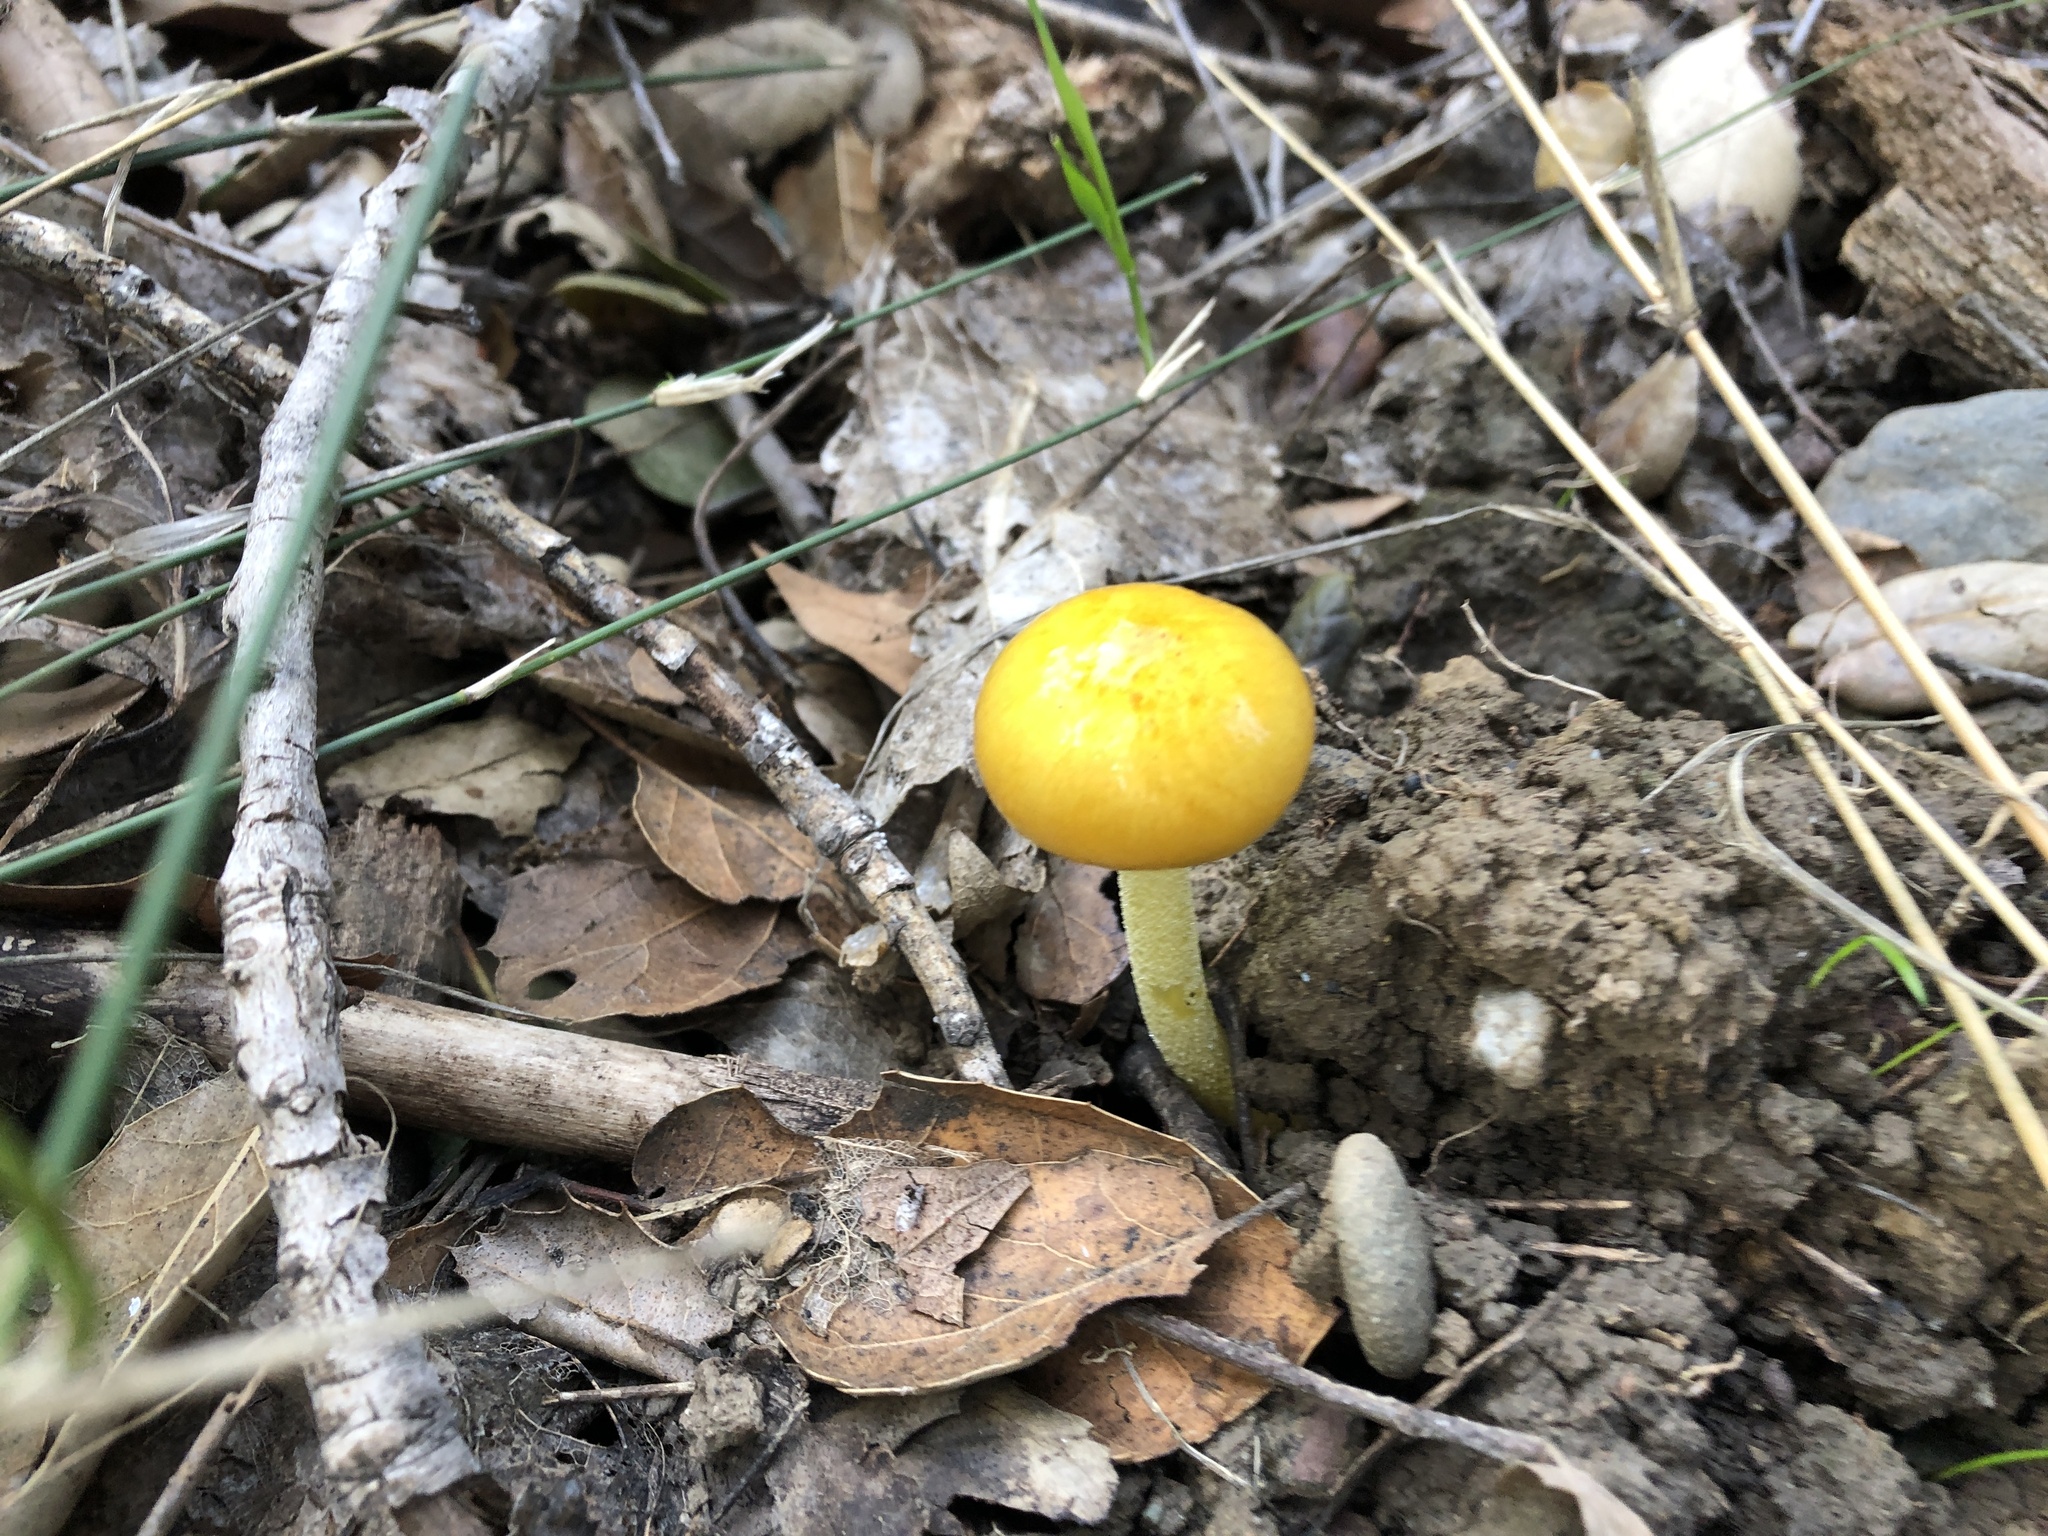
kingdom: Fungi
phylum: Basidiomycota
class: Agaricomycetes
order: Agaricales
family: Bolbitiaceae
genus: Bolbitius
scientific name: Bolbitius titubans
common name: Yellow fieldcap
